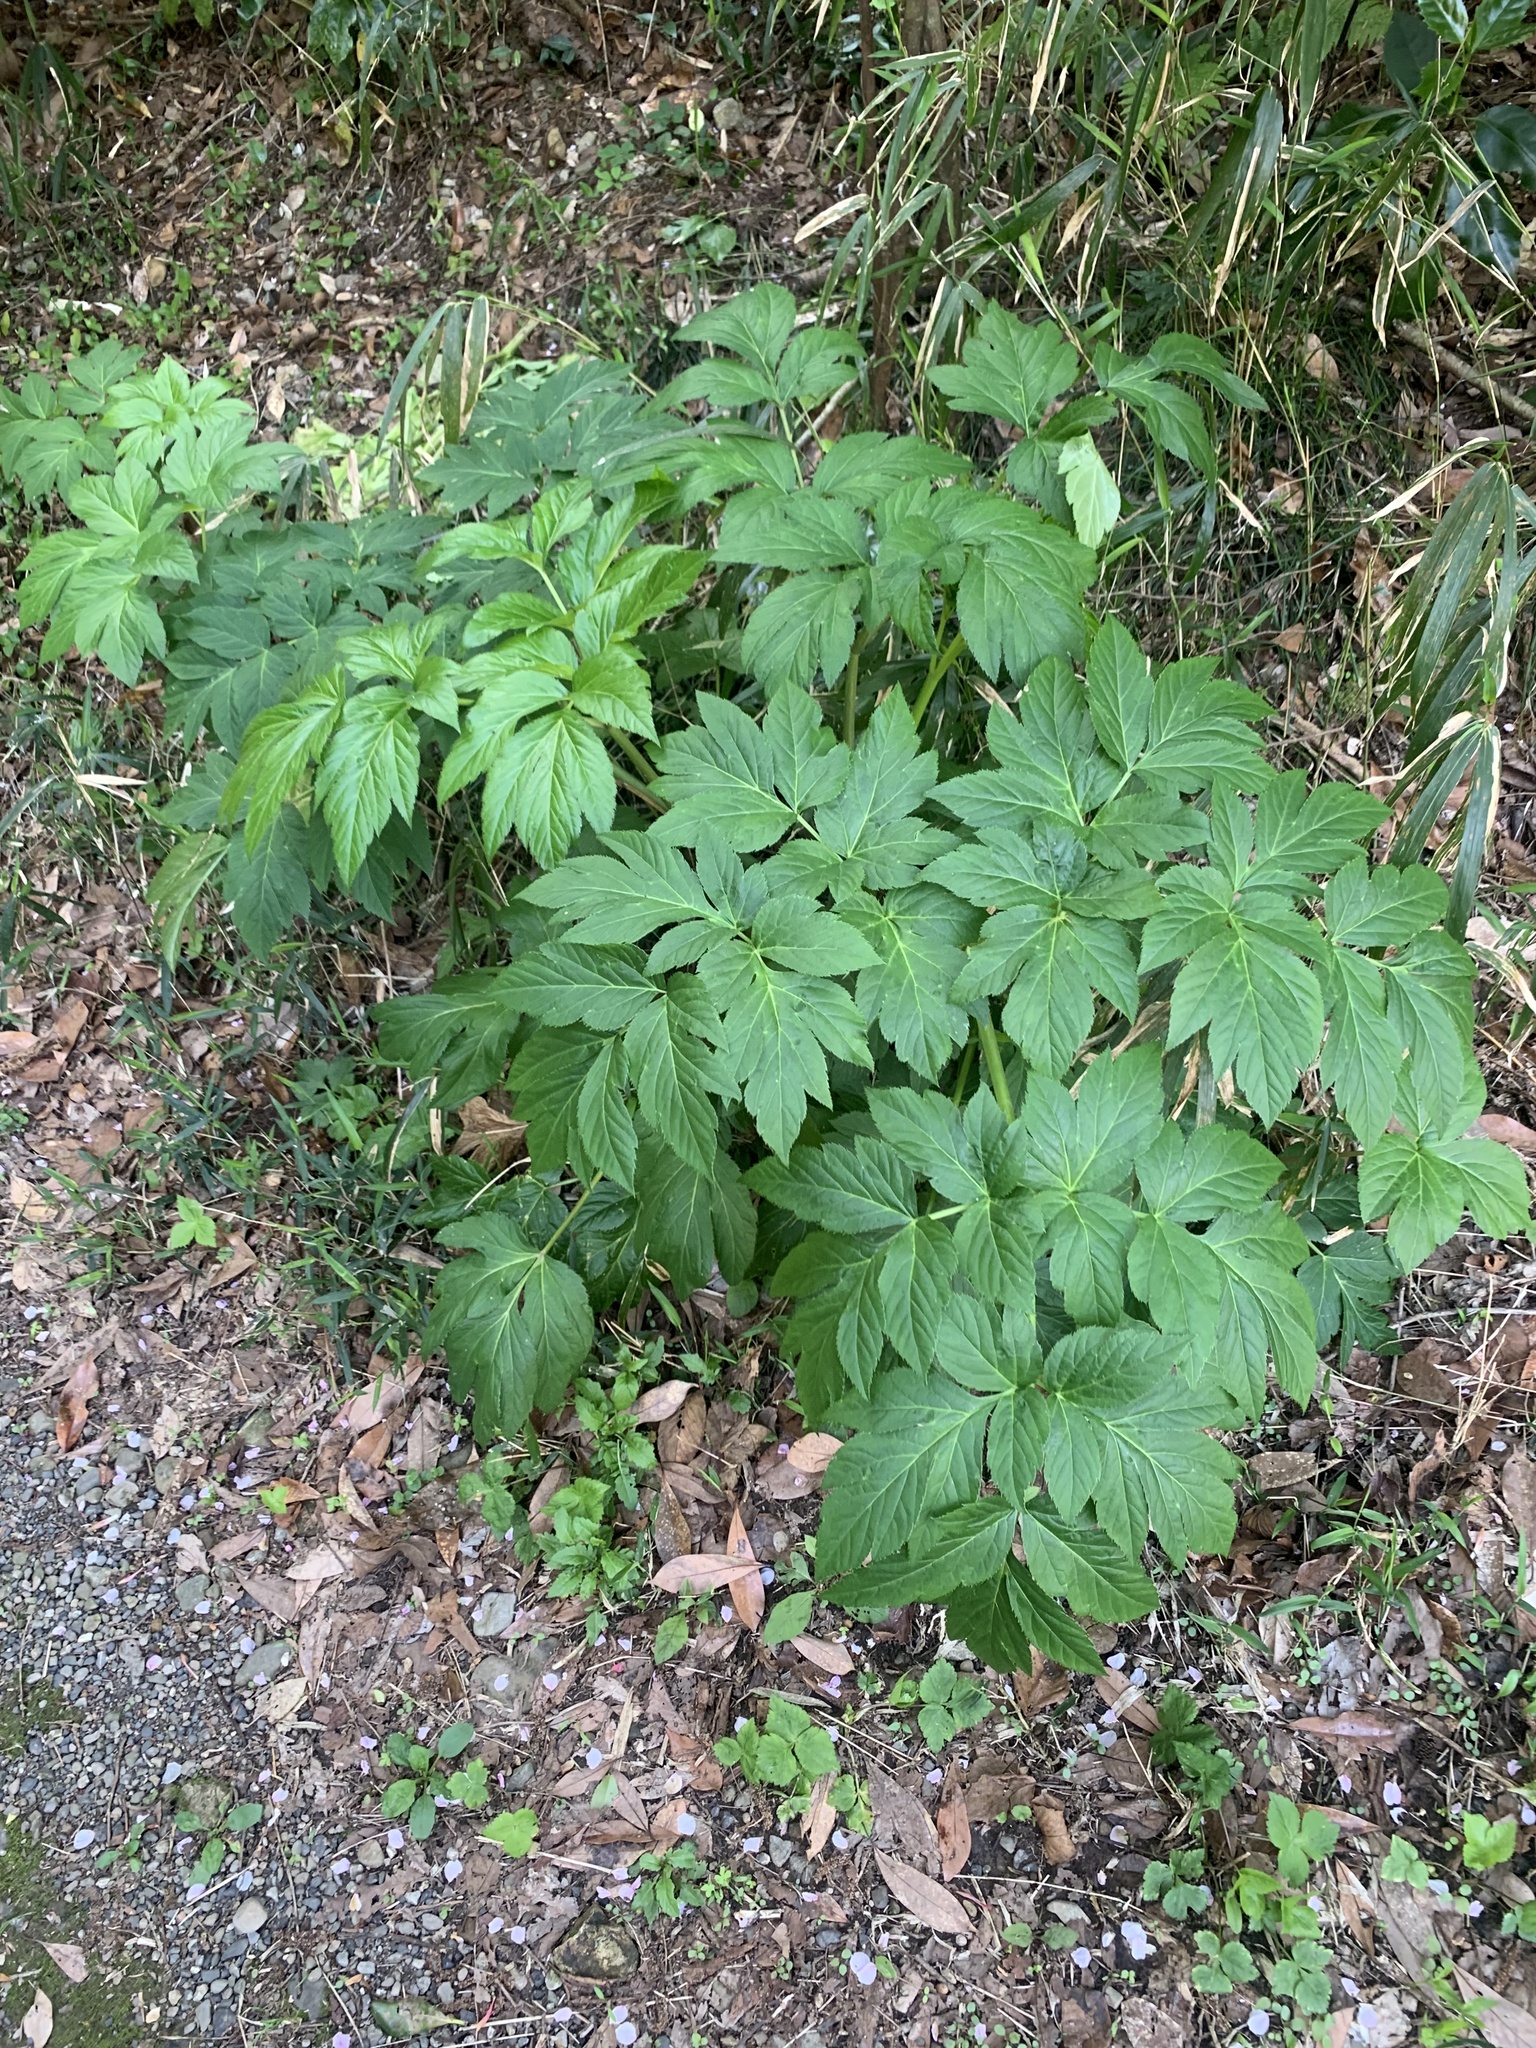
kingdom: Plantae
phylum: Tracheophyta
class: Magnoliopsida
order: Apiales
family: Apiaceae
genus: Angelica
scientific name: Angelica keiskei
